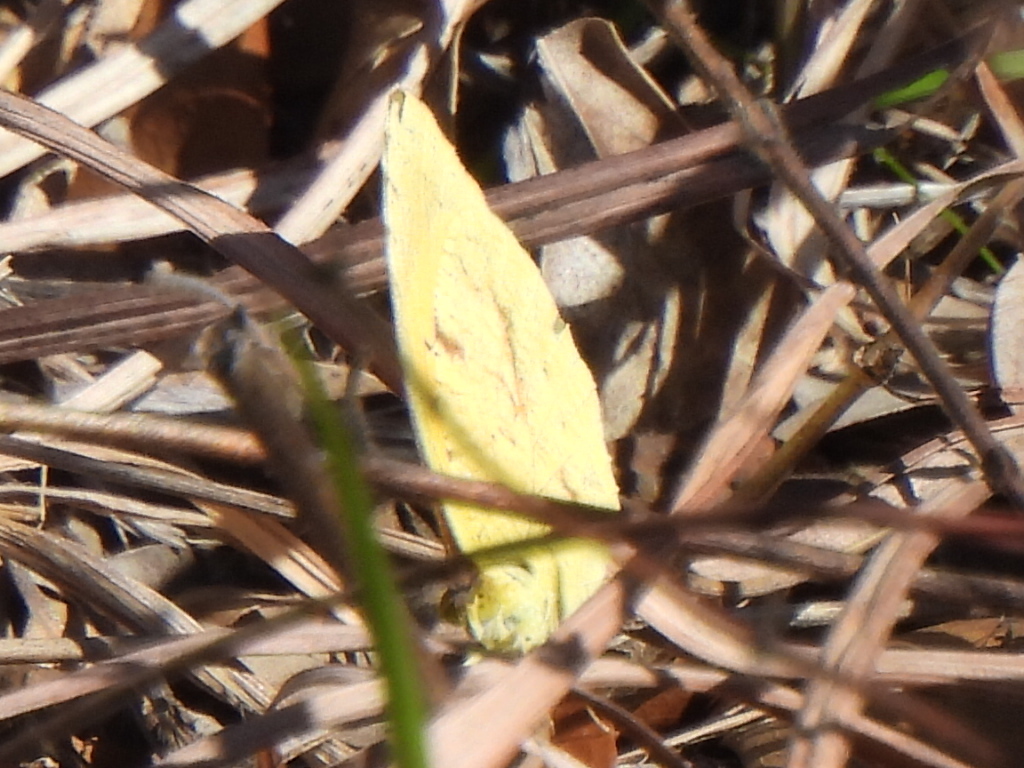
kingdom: Animalia
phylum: Arthropoda
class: Insecta
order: Lepidoptera
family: Pieridae
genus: Abaeis
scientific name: Abaeis nicippe
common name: Sleepy orange
